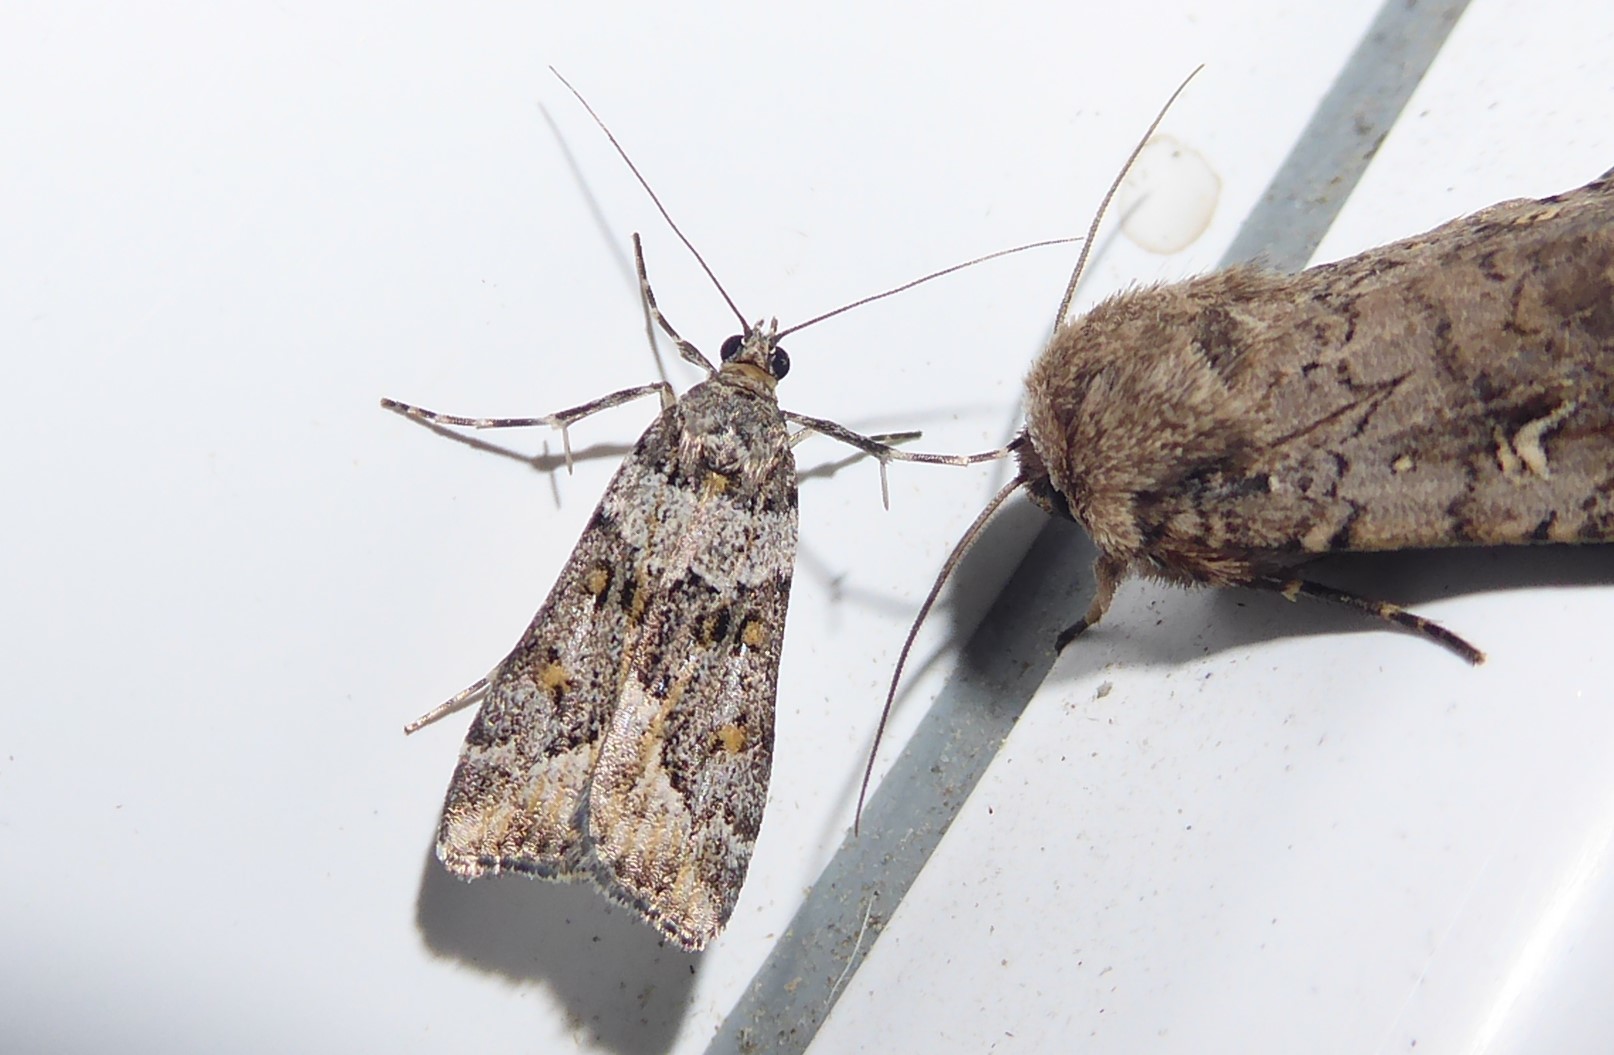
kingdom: Animalia
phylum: Arthropoda
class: Insecta
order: Lepidoptera
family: Crambidae
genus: Eudonia
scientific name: Eudonia diphtheralis
